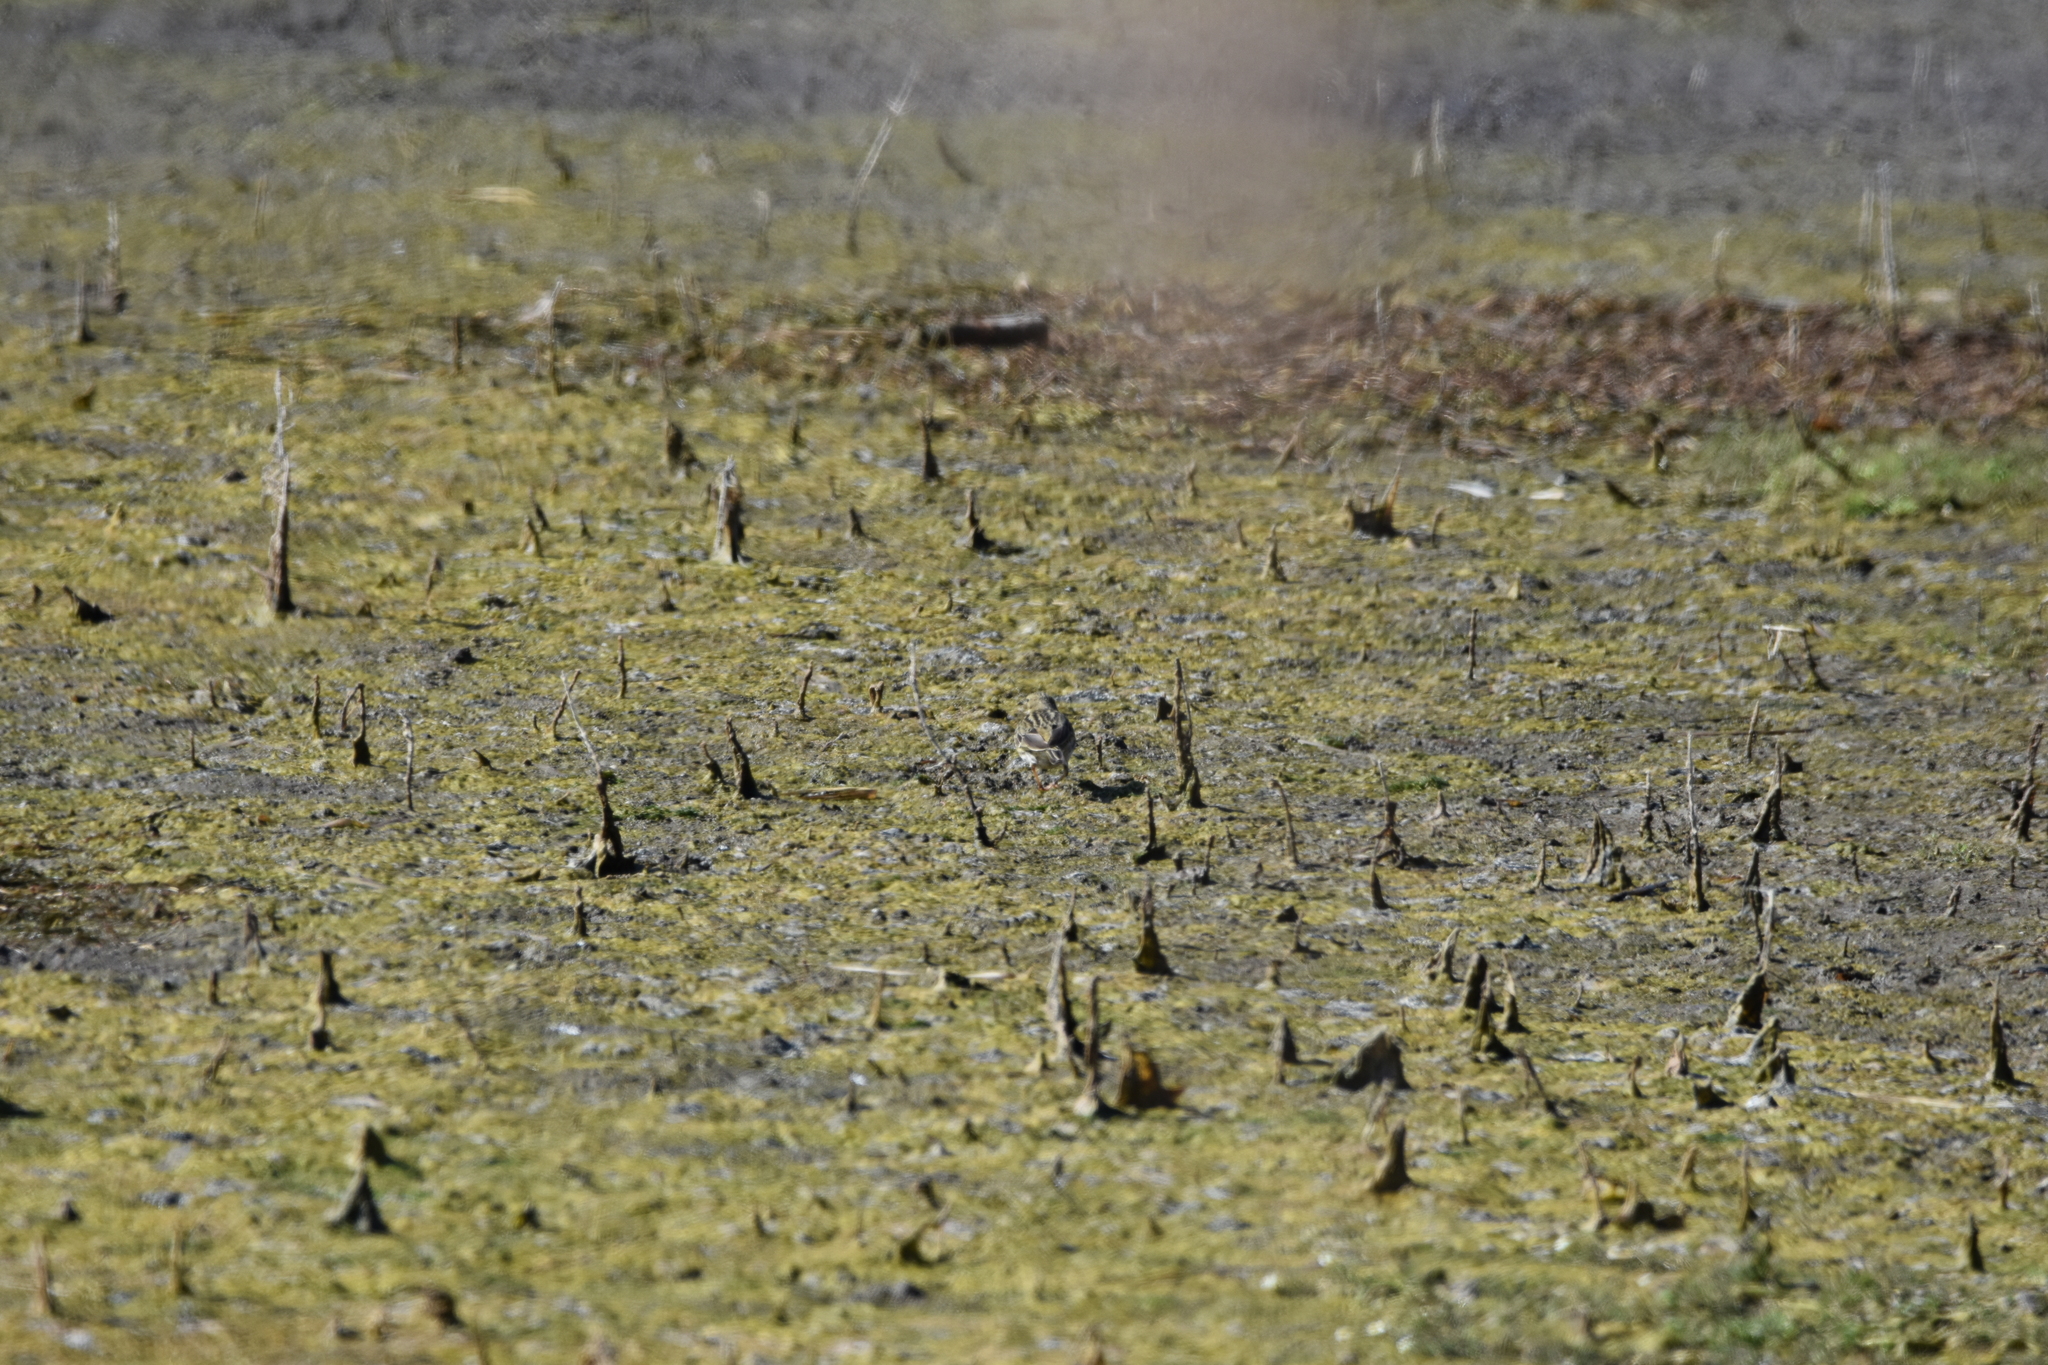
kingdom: Animalia
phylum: Chordata
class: Aves
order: Passeriformes
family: Motacillidae
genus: Anthus
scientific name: Anthus pratensis
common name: Meadow pipit
